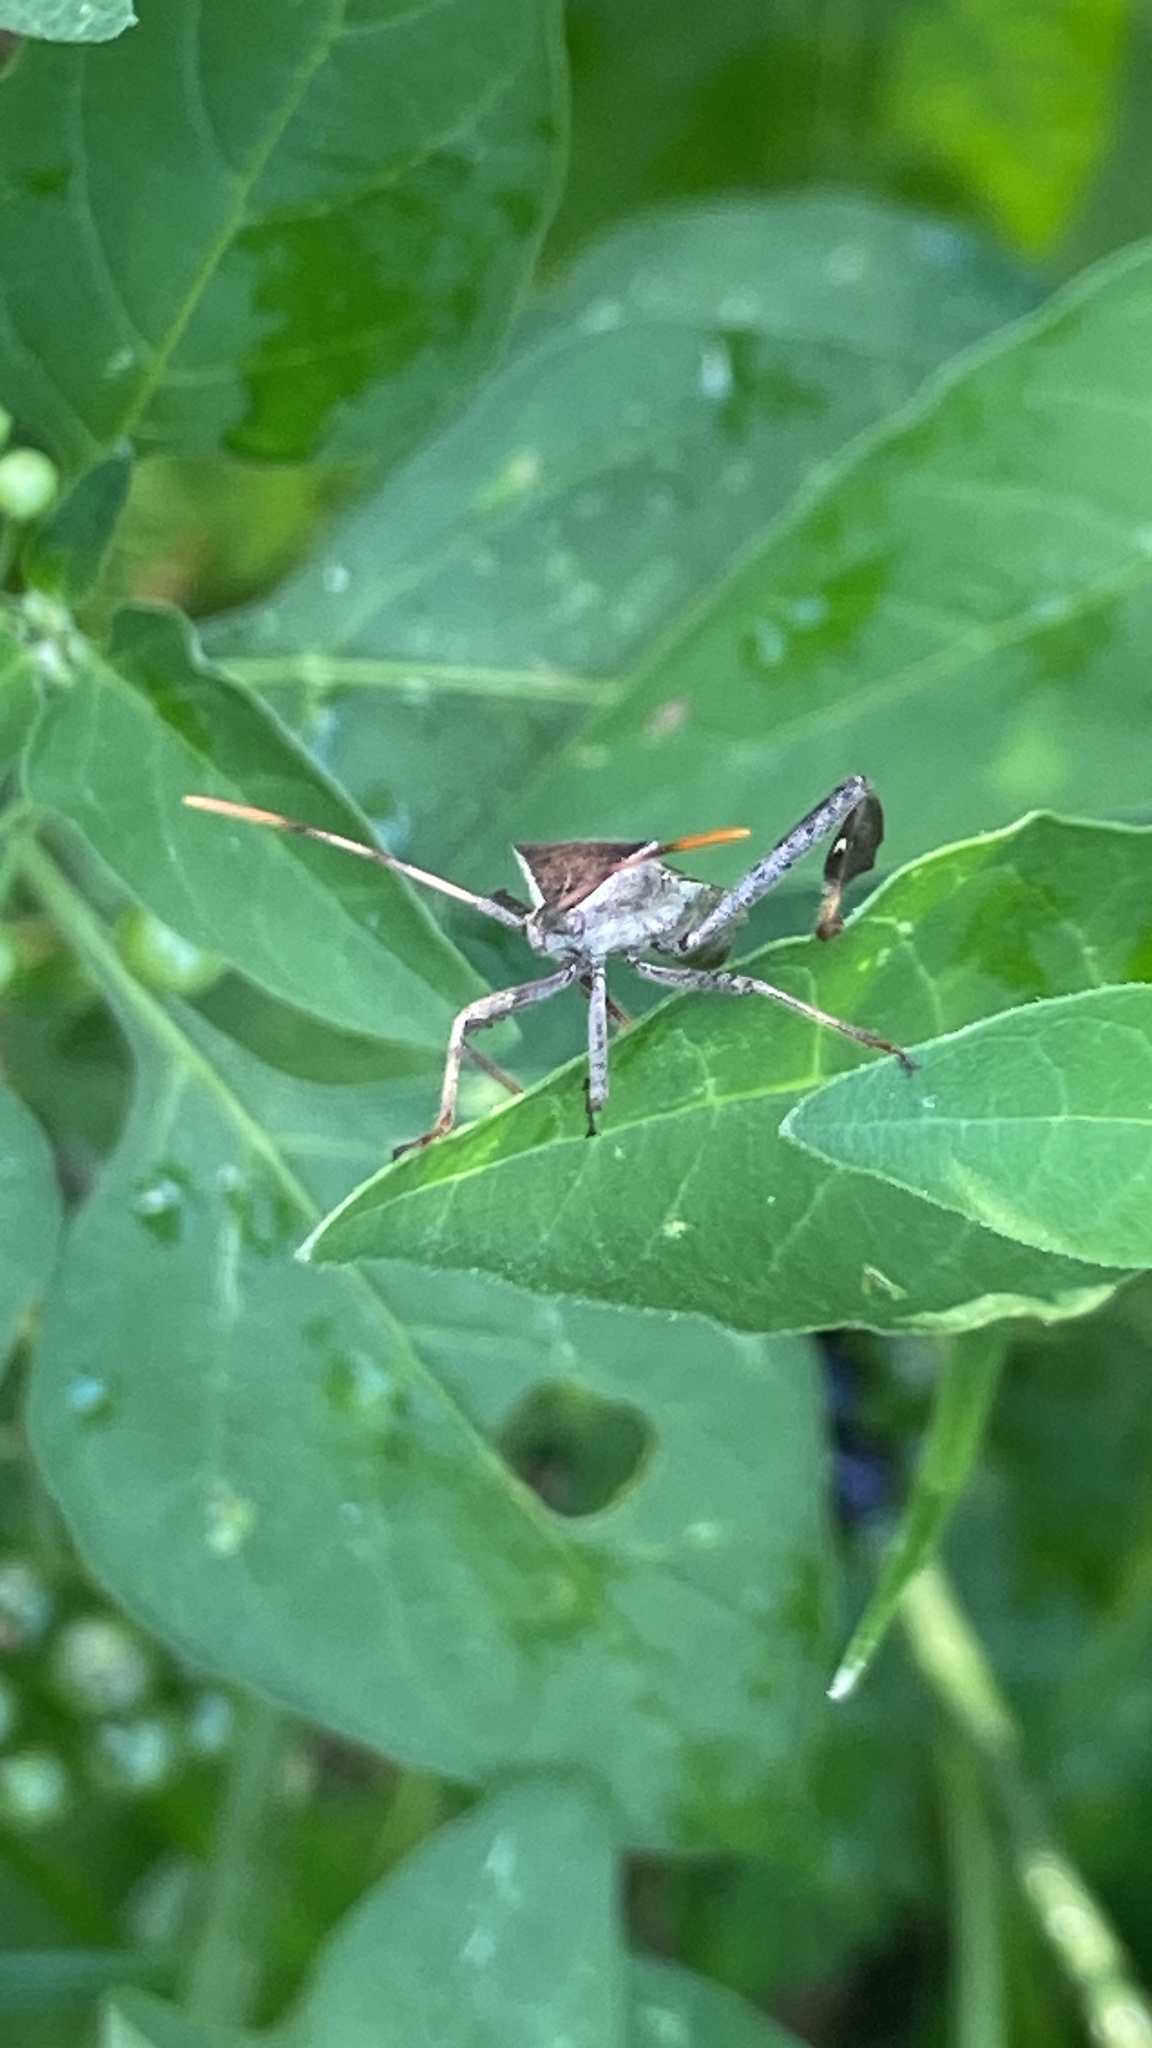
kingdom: Animalia
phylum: Arthropoda
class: Insecta
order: Hemiptera
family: Coreidae
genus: Leptoglossus
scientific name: Leptoglossus phyllopus
